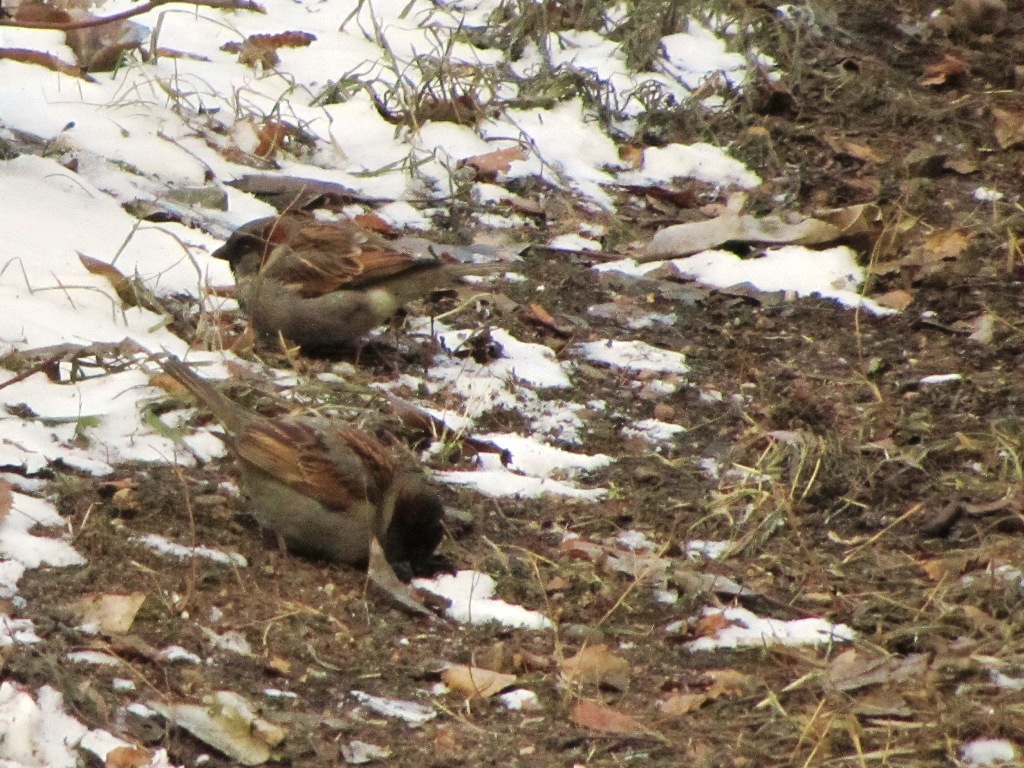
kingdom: Animalia
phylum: Chordata
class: Aves
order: Passeriformes
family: Passeridae
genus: Passer
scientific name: Passer domesticus
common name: House sparrow
